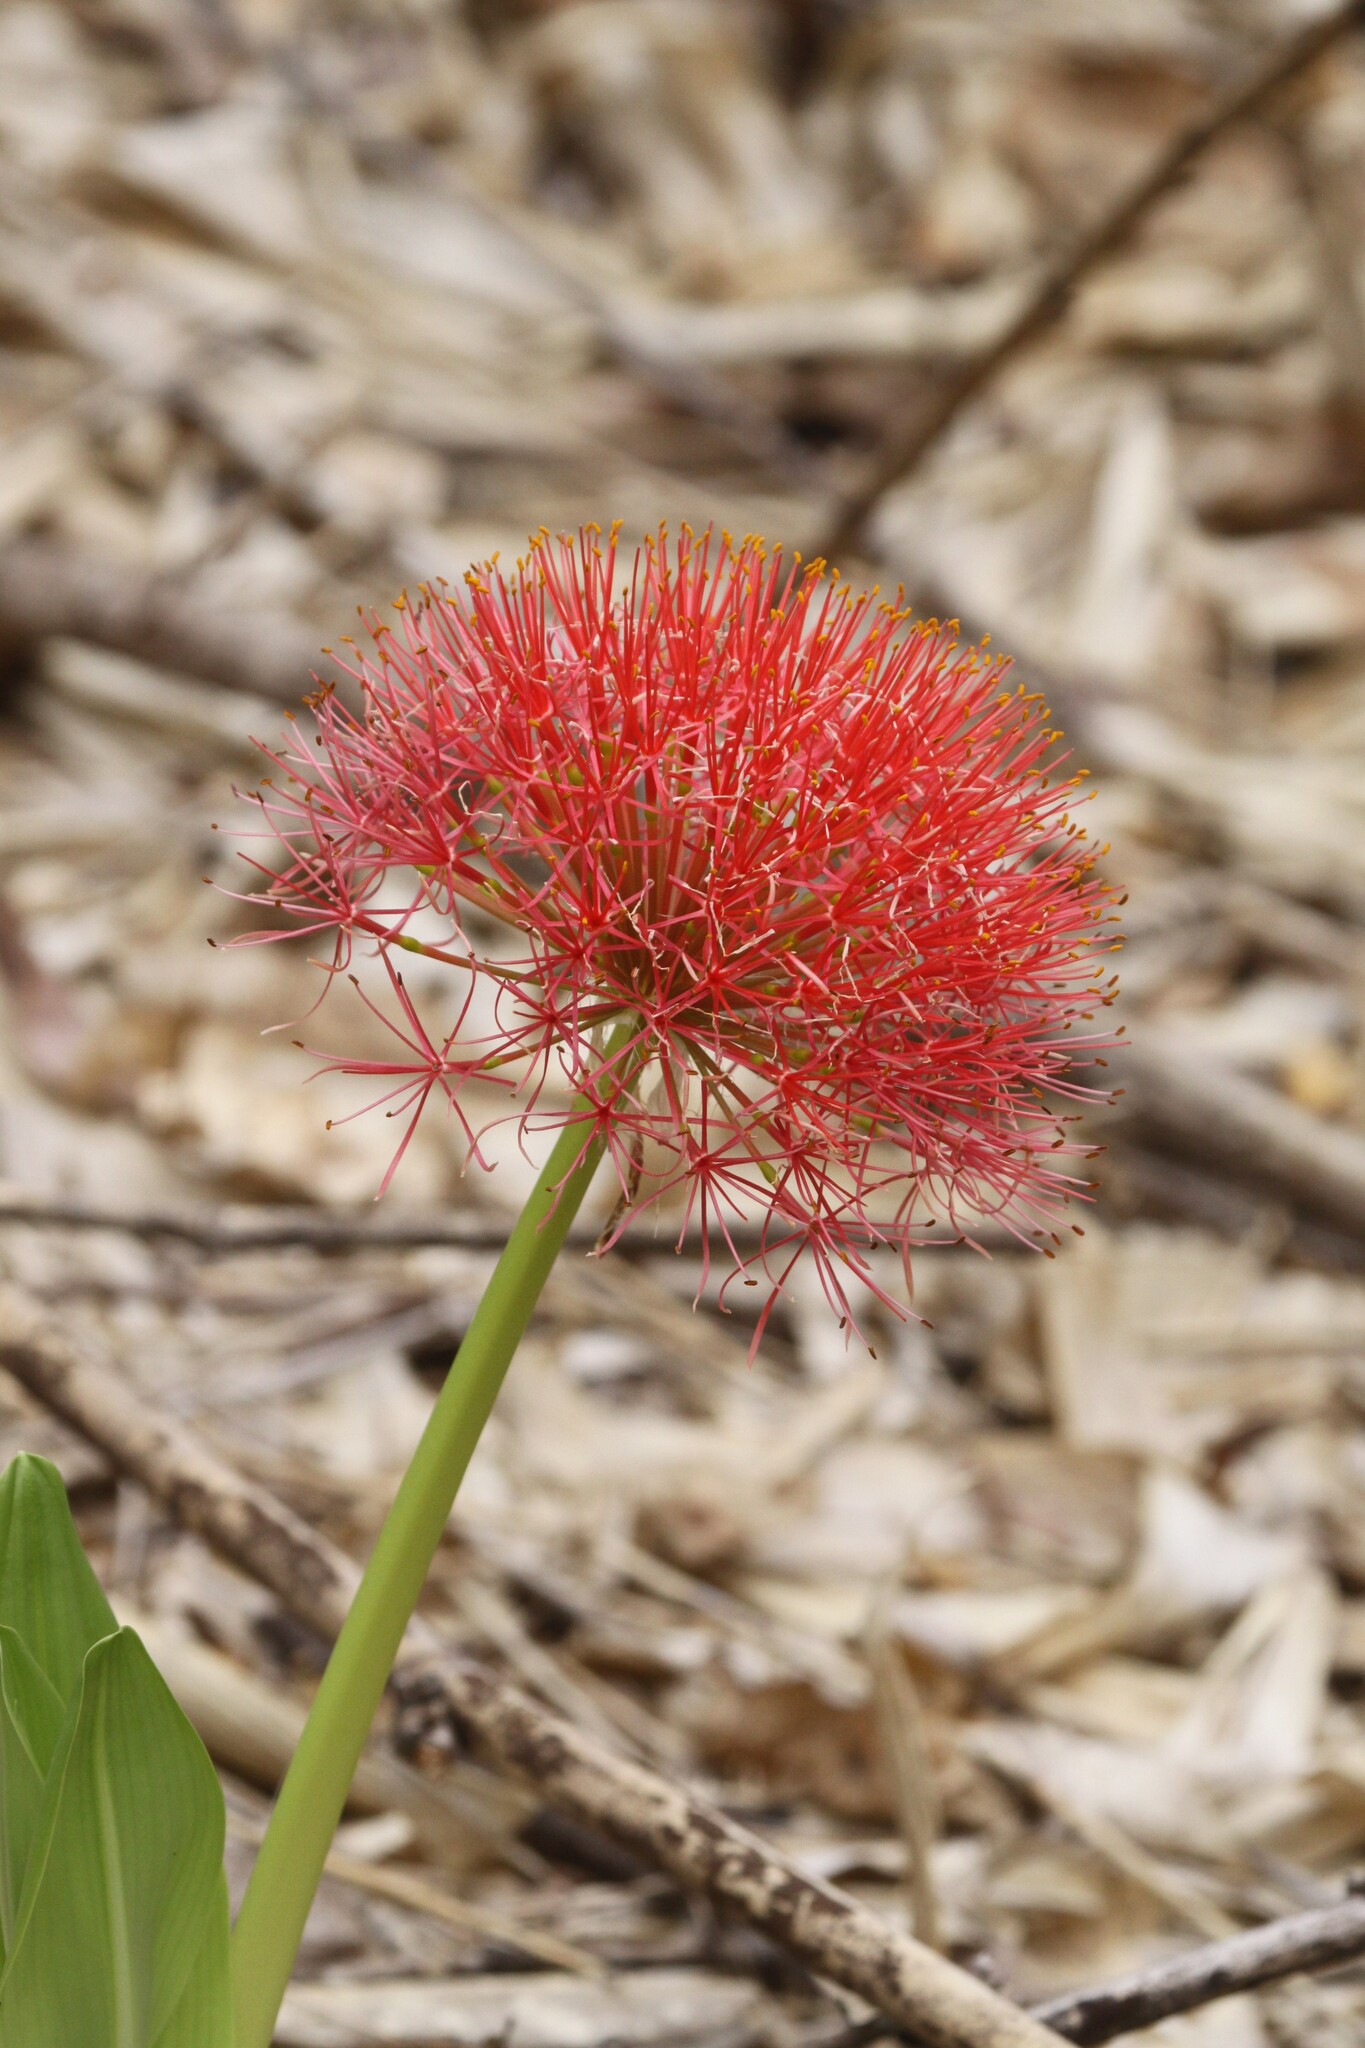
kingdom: Plantae
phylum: Tracheophyta
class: Liliopsida
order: Asparagales
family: Amaryllidaceae
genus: Scadoxus
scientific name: Scadoxus multiflorus
